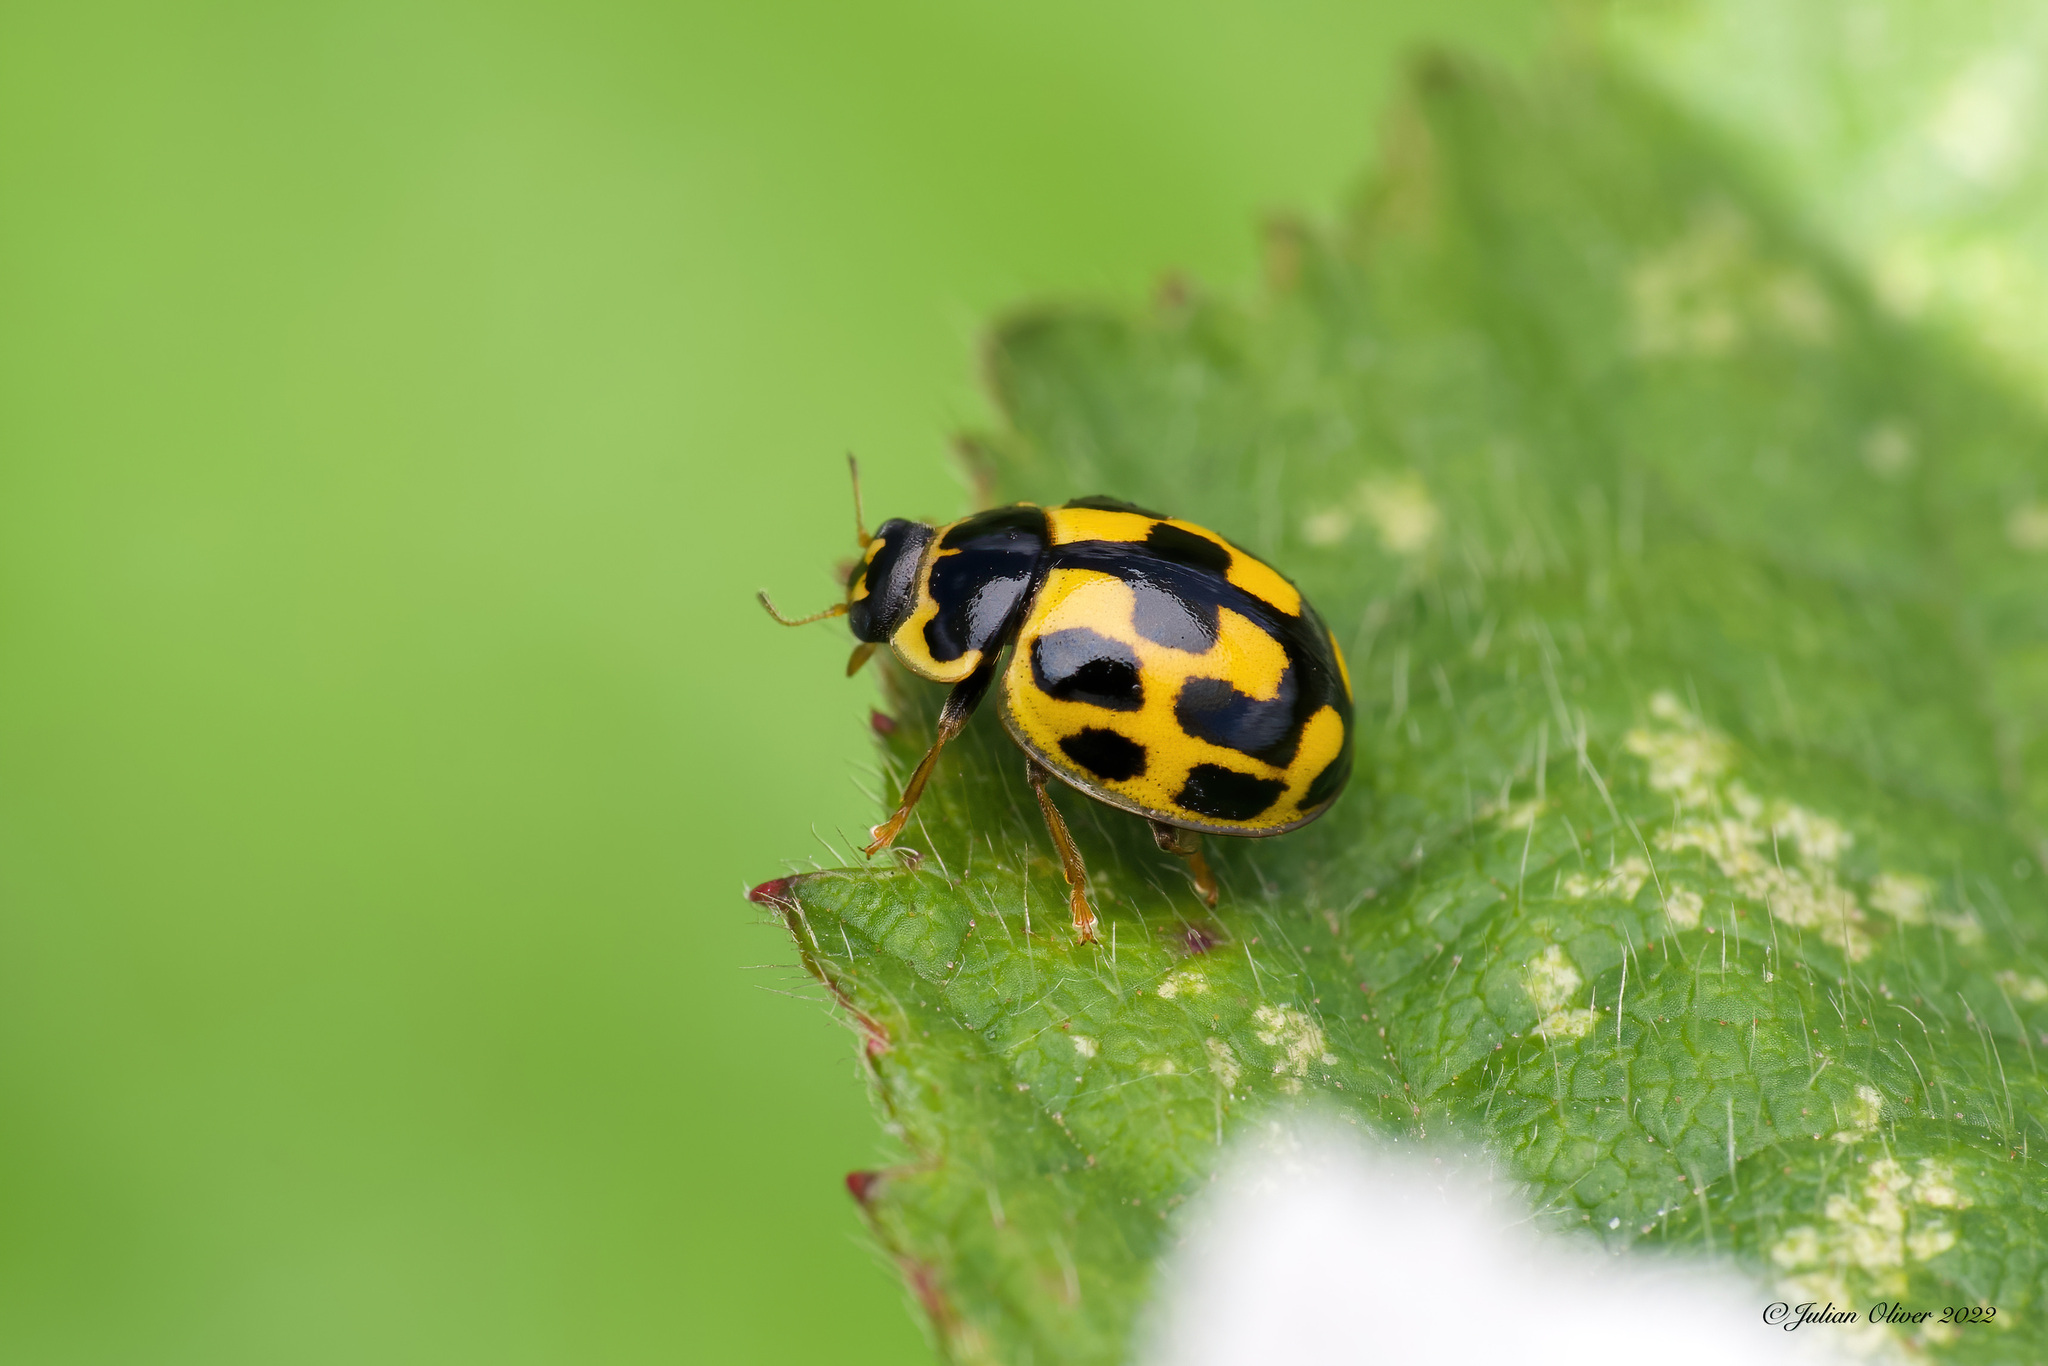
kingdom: Animalia
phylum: Arthropoda
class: Insecta
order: Coleoptera
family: Coccinellidae
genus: Propylaea
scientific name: Propylaea quatuordecimpunctata
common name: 14-spotted ladybird beetle
